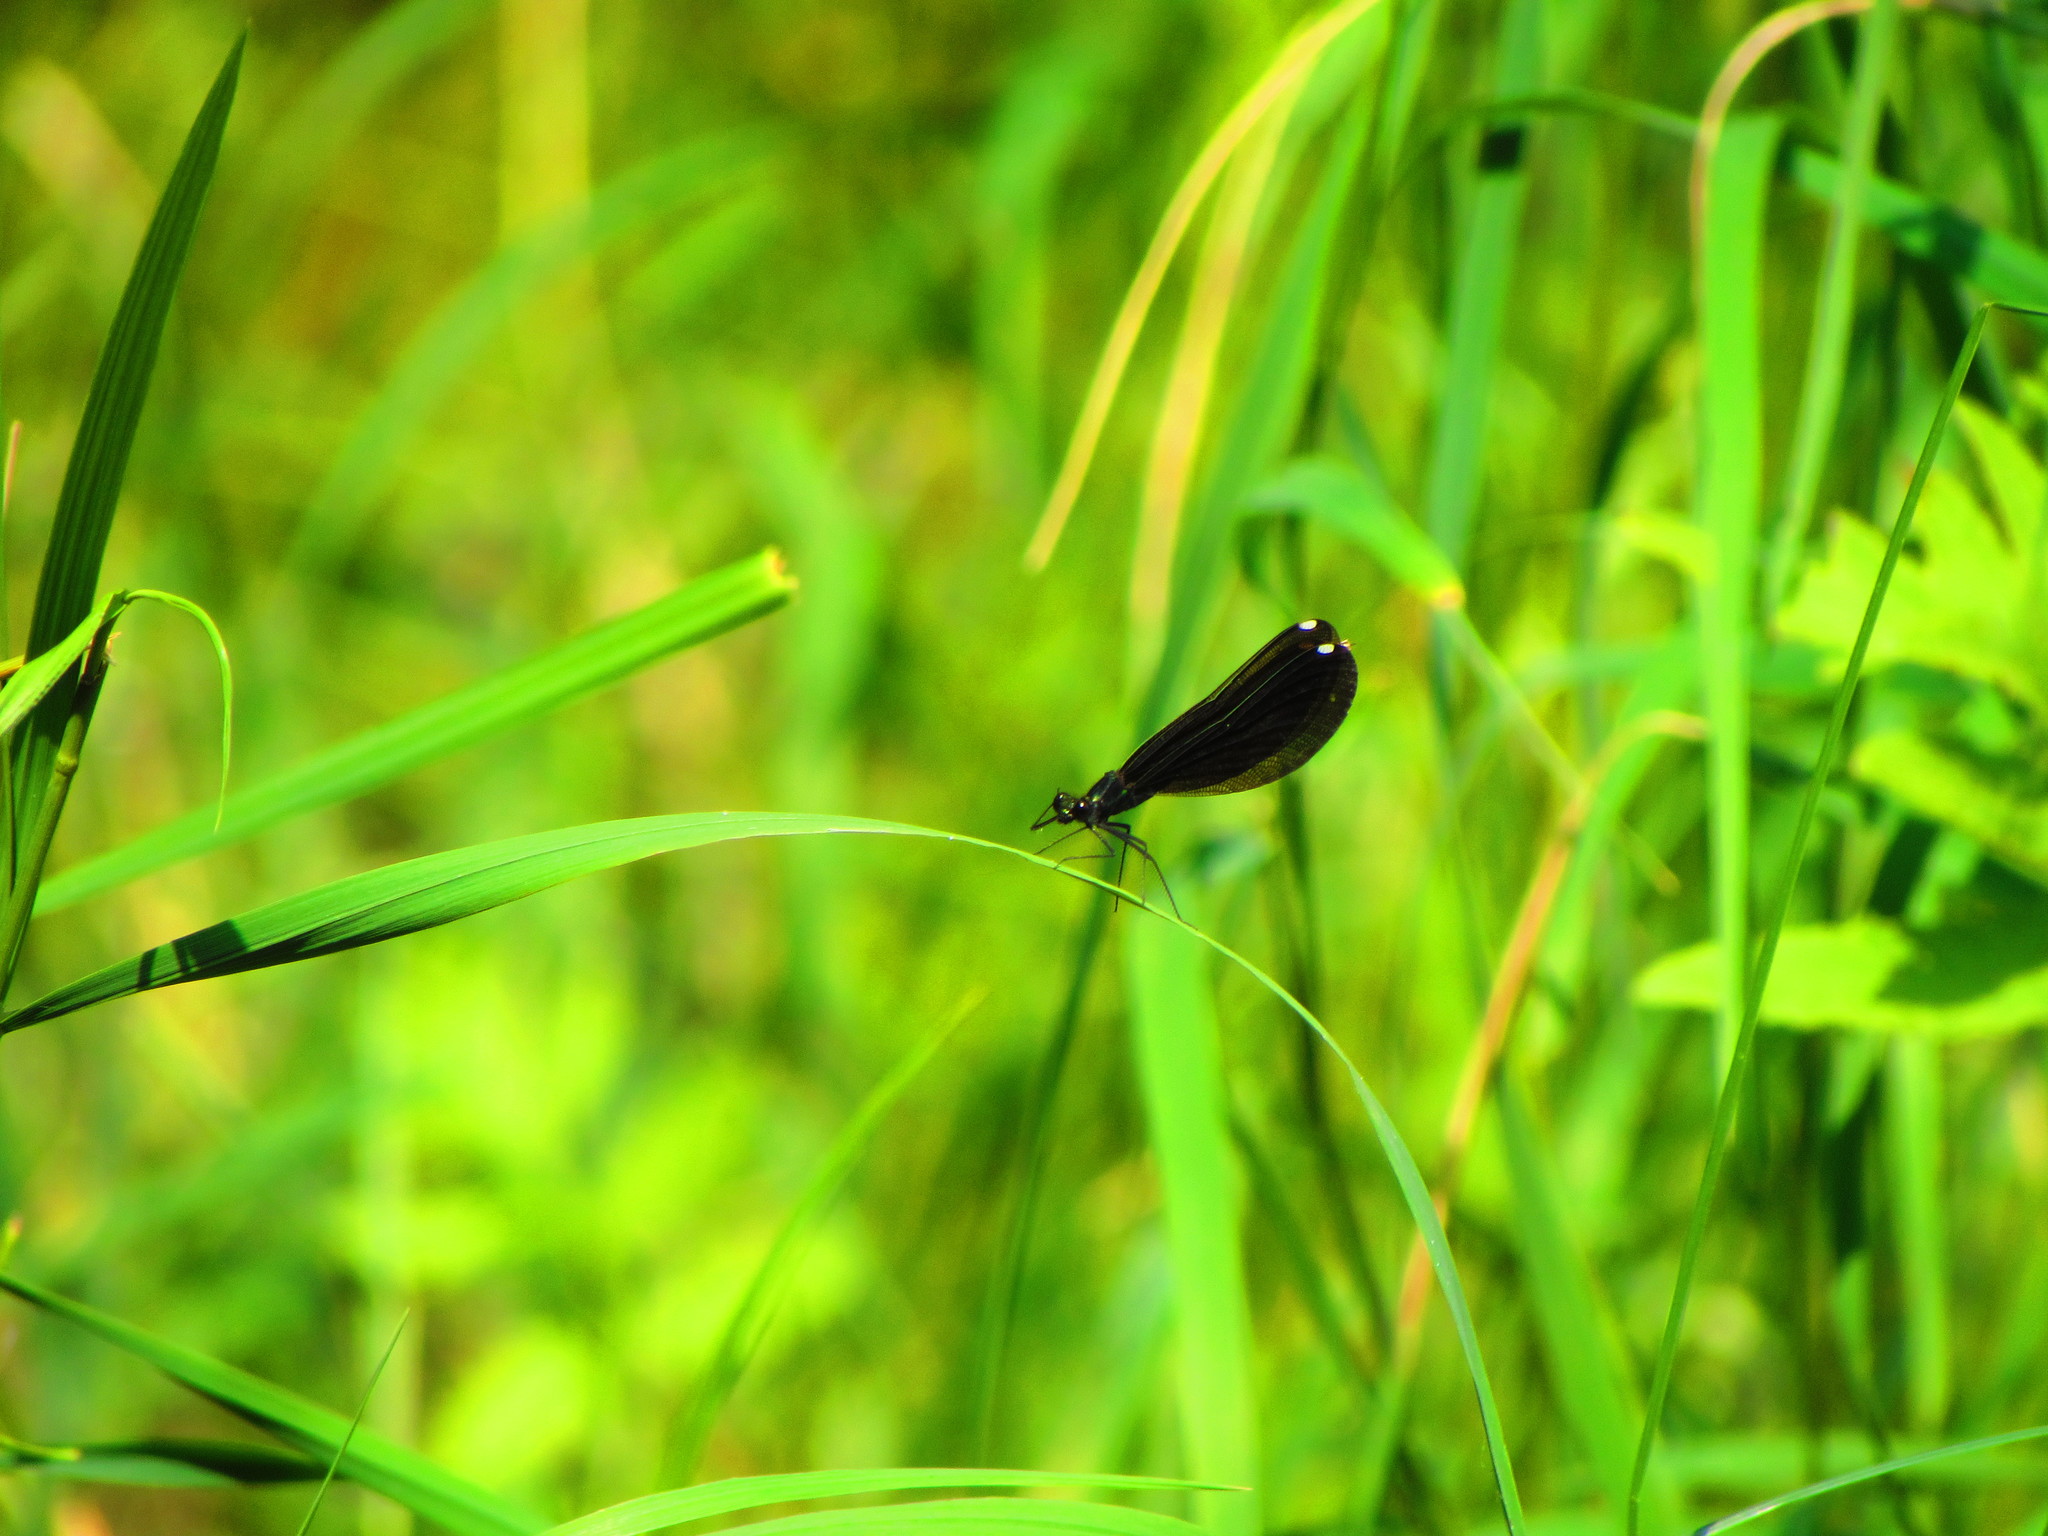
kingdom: Animalia
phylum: Arthropoda
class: Insecta
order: Odonata
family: Calopterygidae
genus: Calopteryx
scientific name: Calopteryx maculata
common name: Ebony jewelwing
